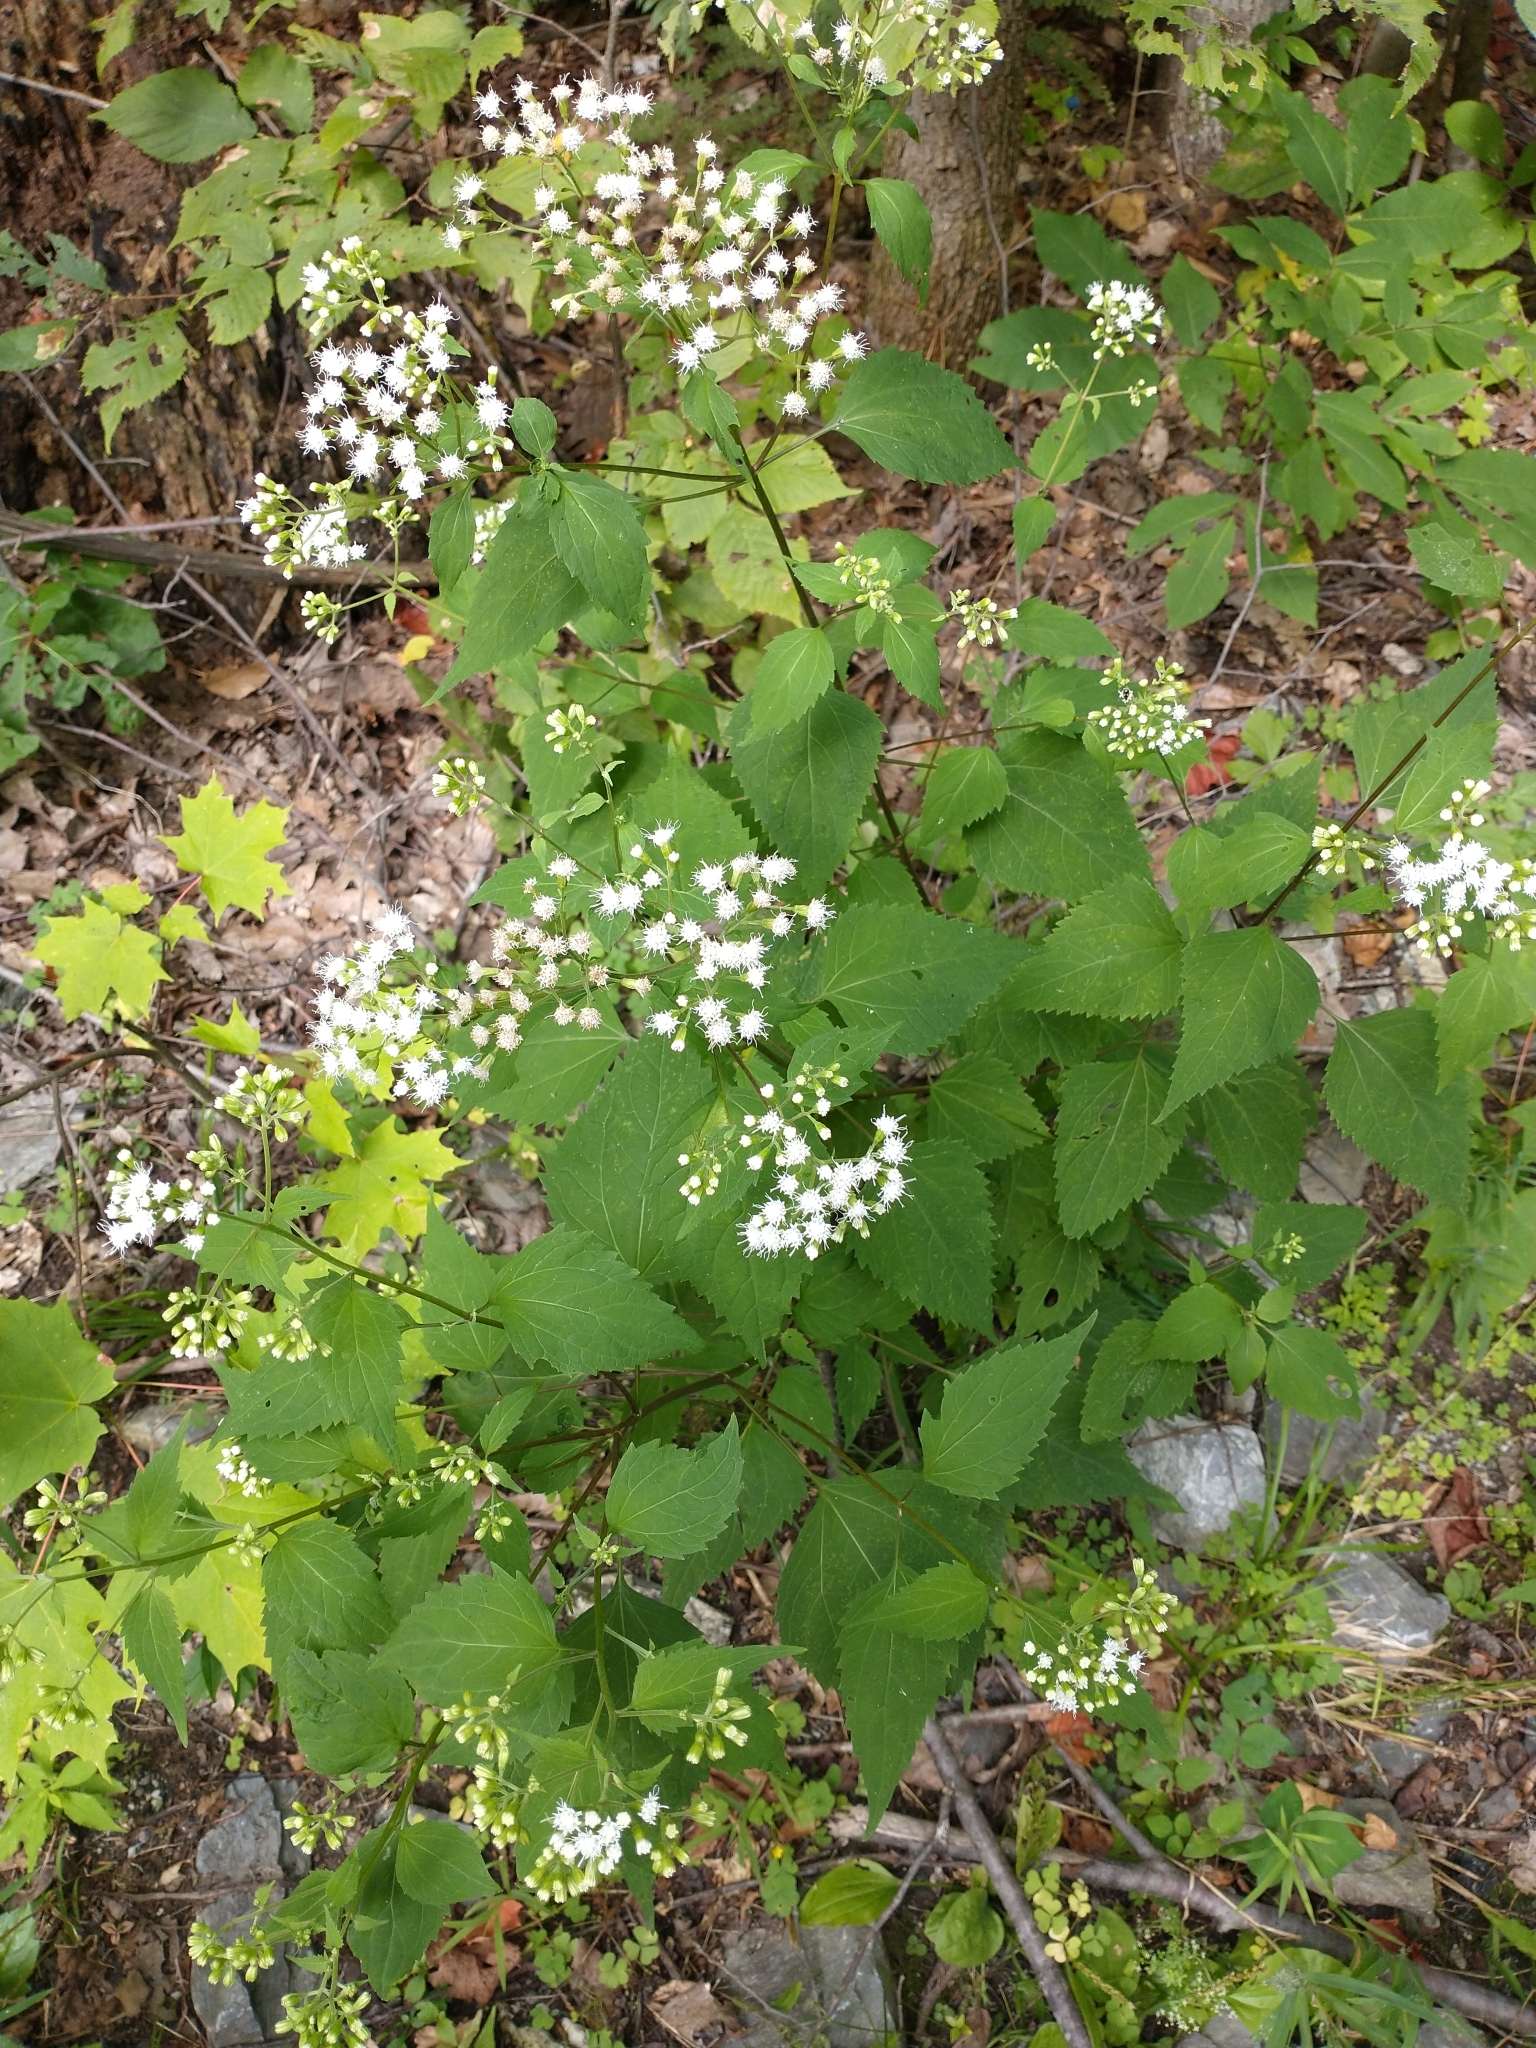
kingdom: Plantae
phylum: Tracheophyta
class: Magnoliopsida
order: Asterales
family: Asteraceae
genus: Ageratina
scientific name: Ageratina altissima
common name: White snakeroot
